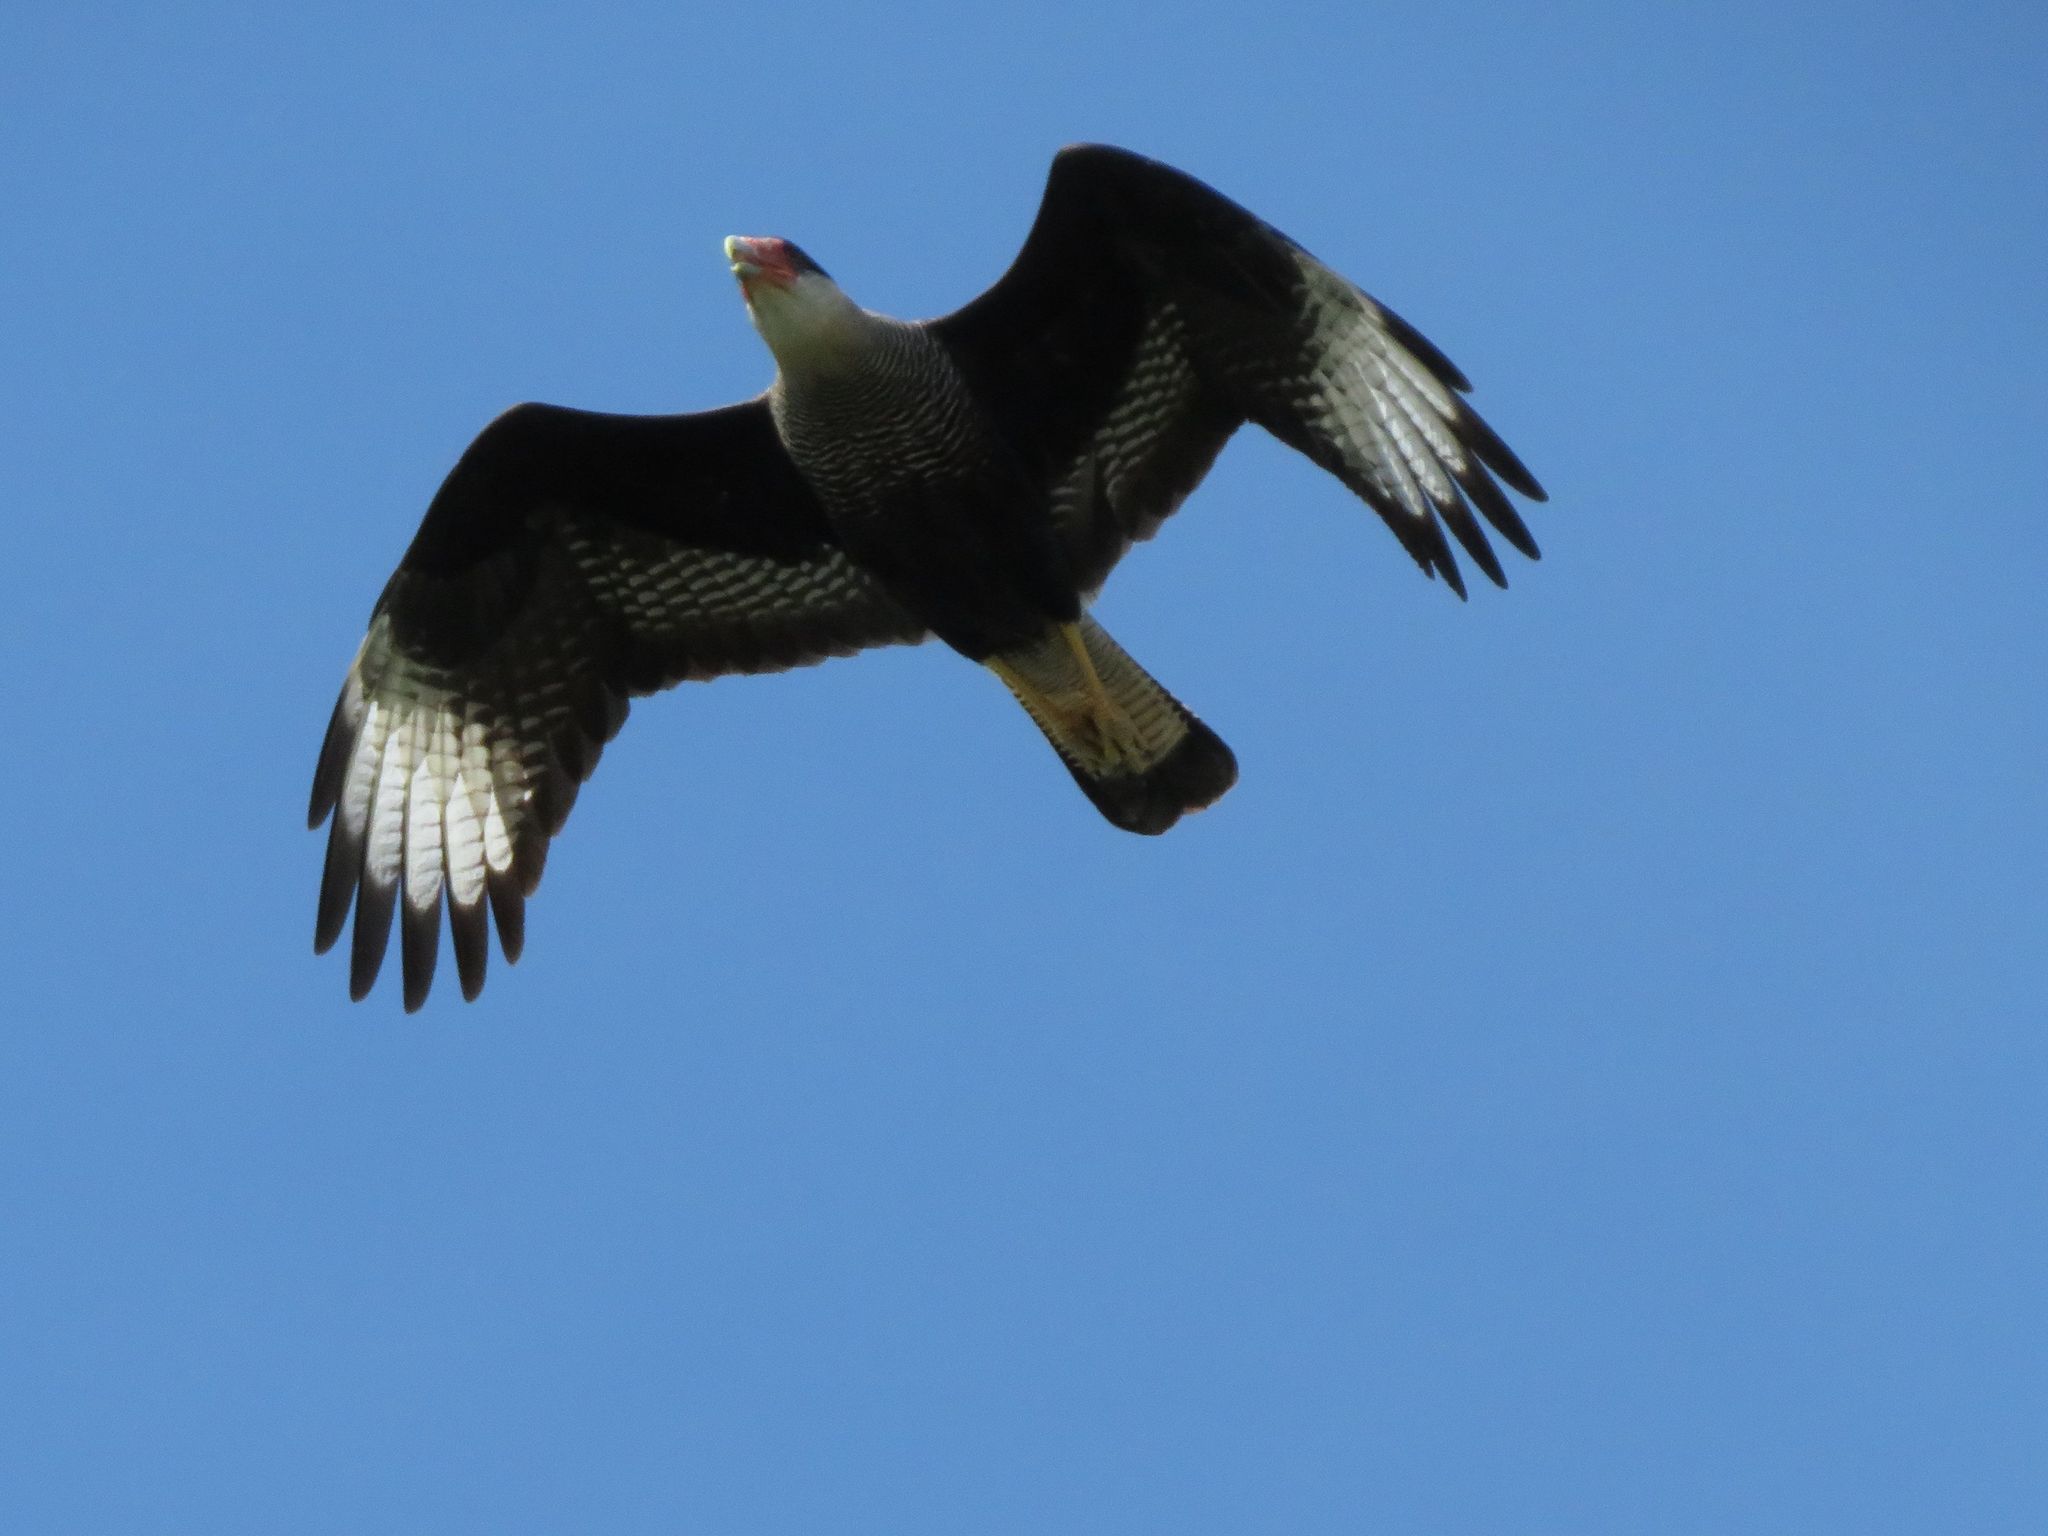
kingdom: Animalia
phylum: Chordata
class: Aves
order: Falconiformes
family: Falconidae
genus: Caracara
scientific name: Caracara plancus
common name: Southern caracara
